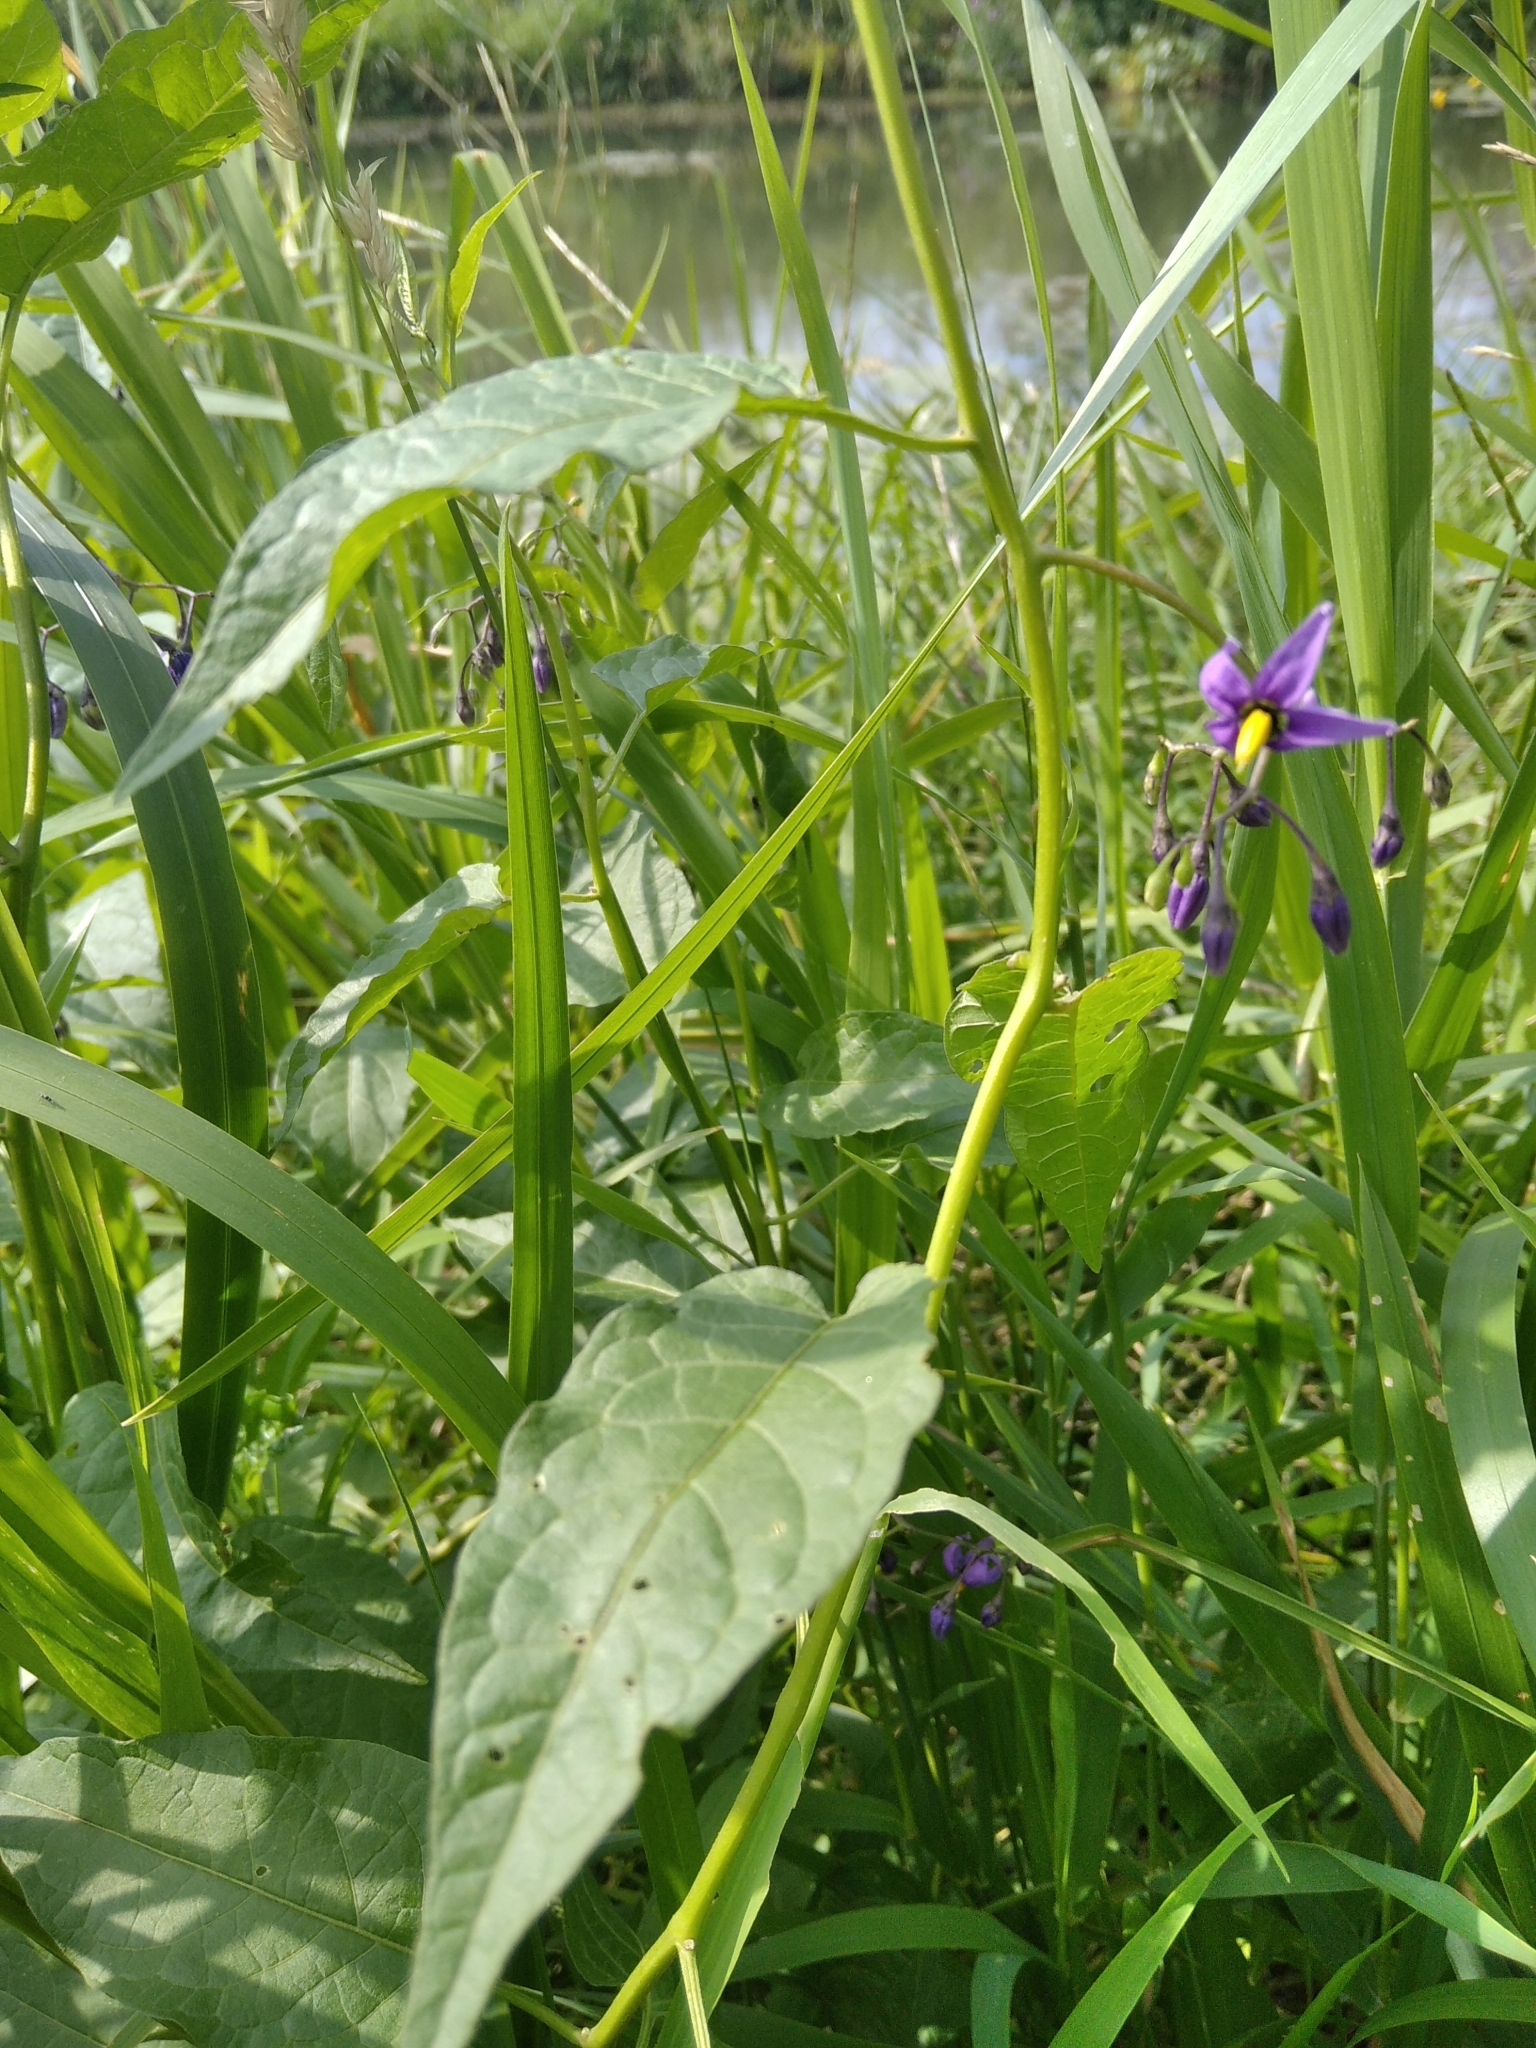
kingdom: Plantae
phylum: Tracheophyta
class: Magnoliopsida
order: Solanales
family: Solanaceae
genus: Solanum
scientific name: Solanum dulcamara
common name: Climbing nightshade
